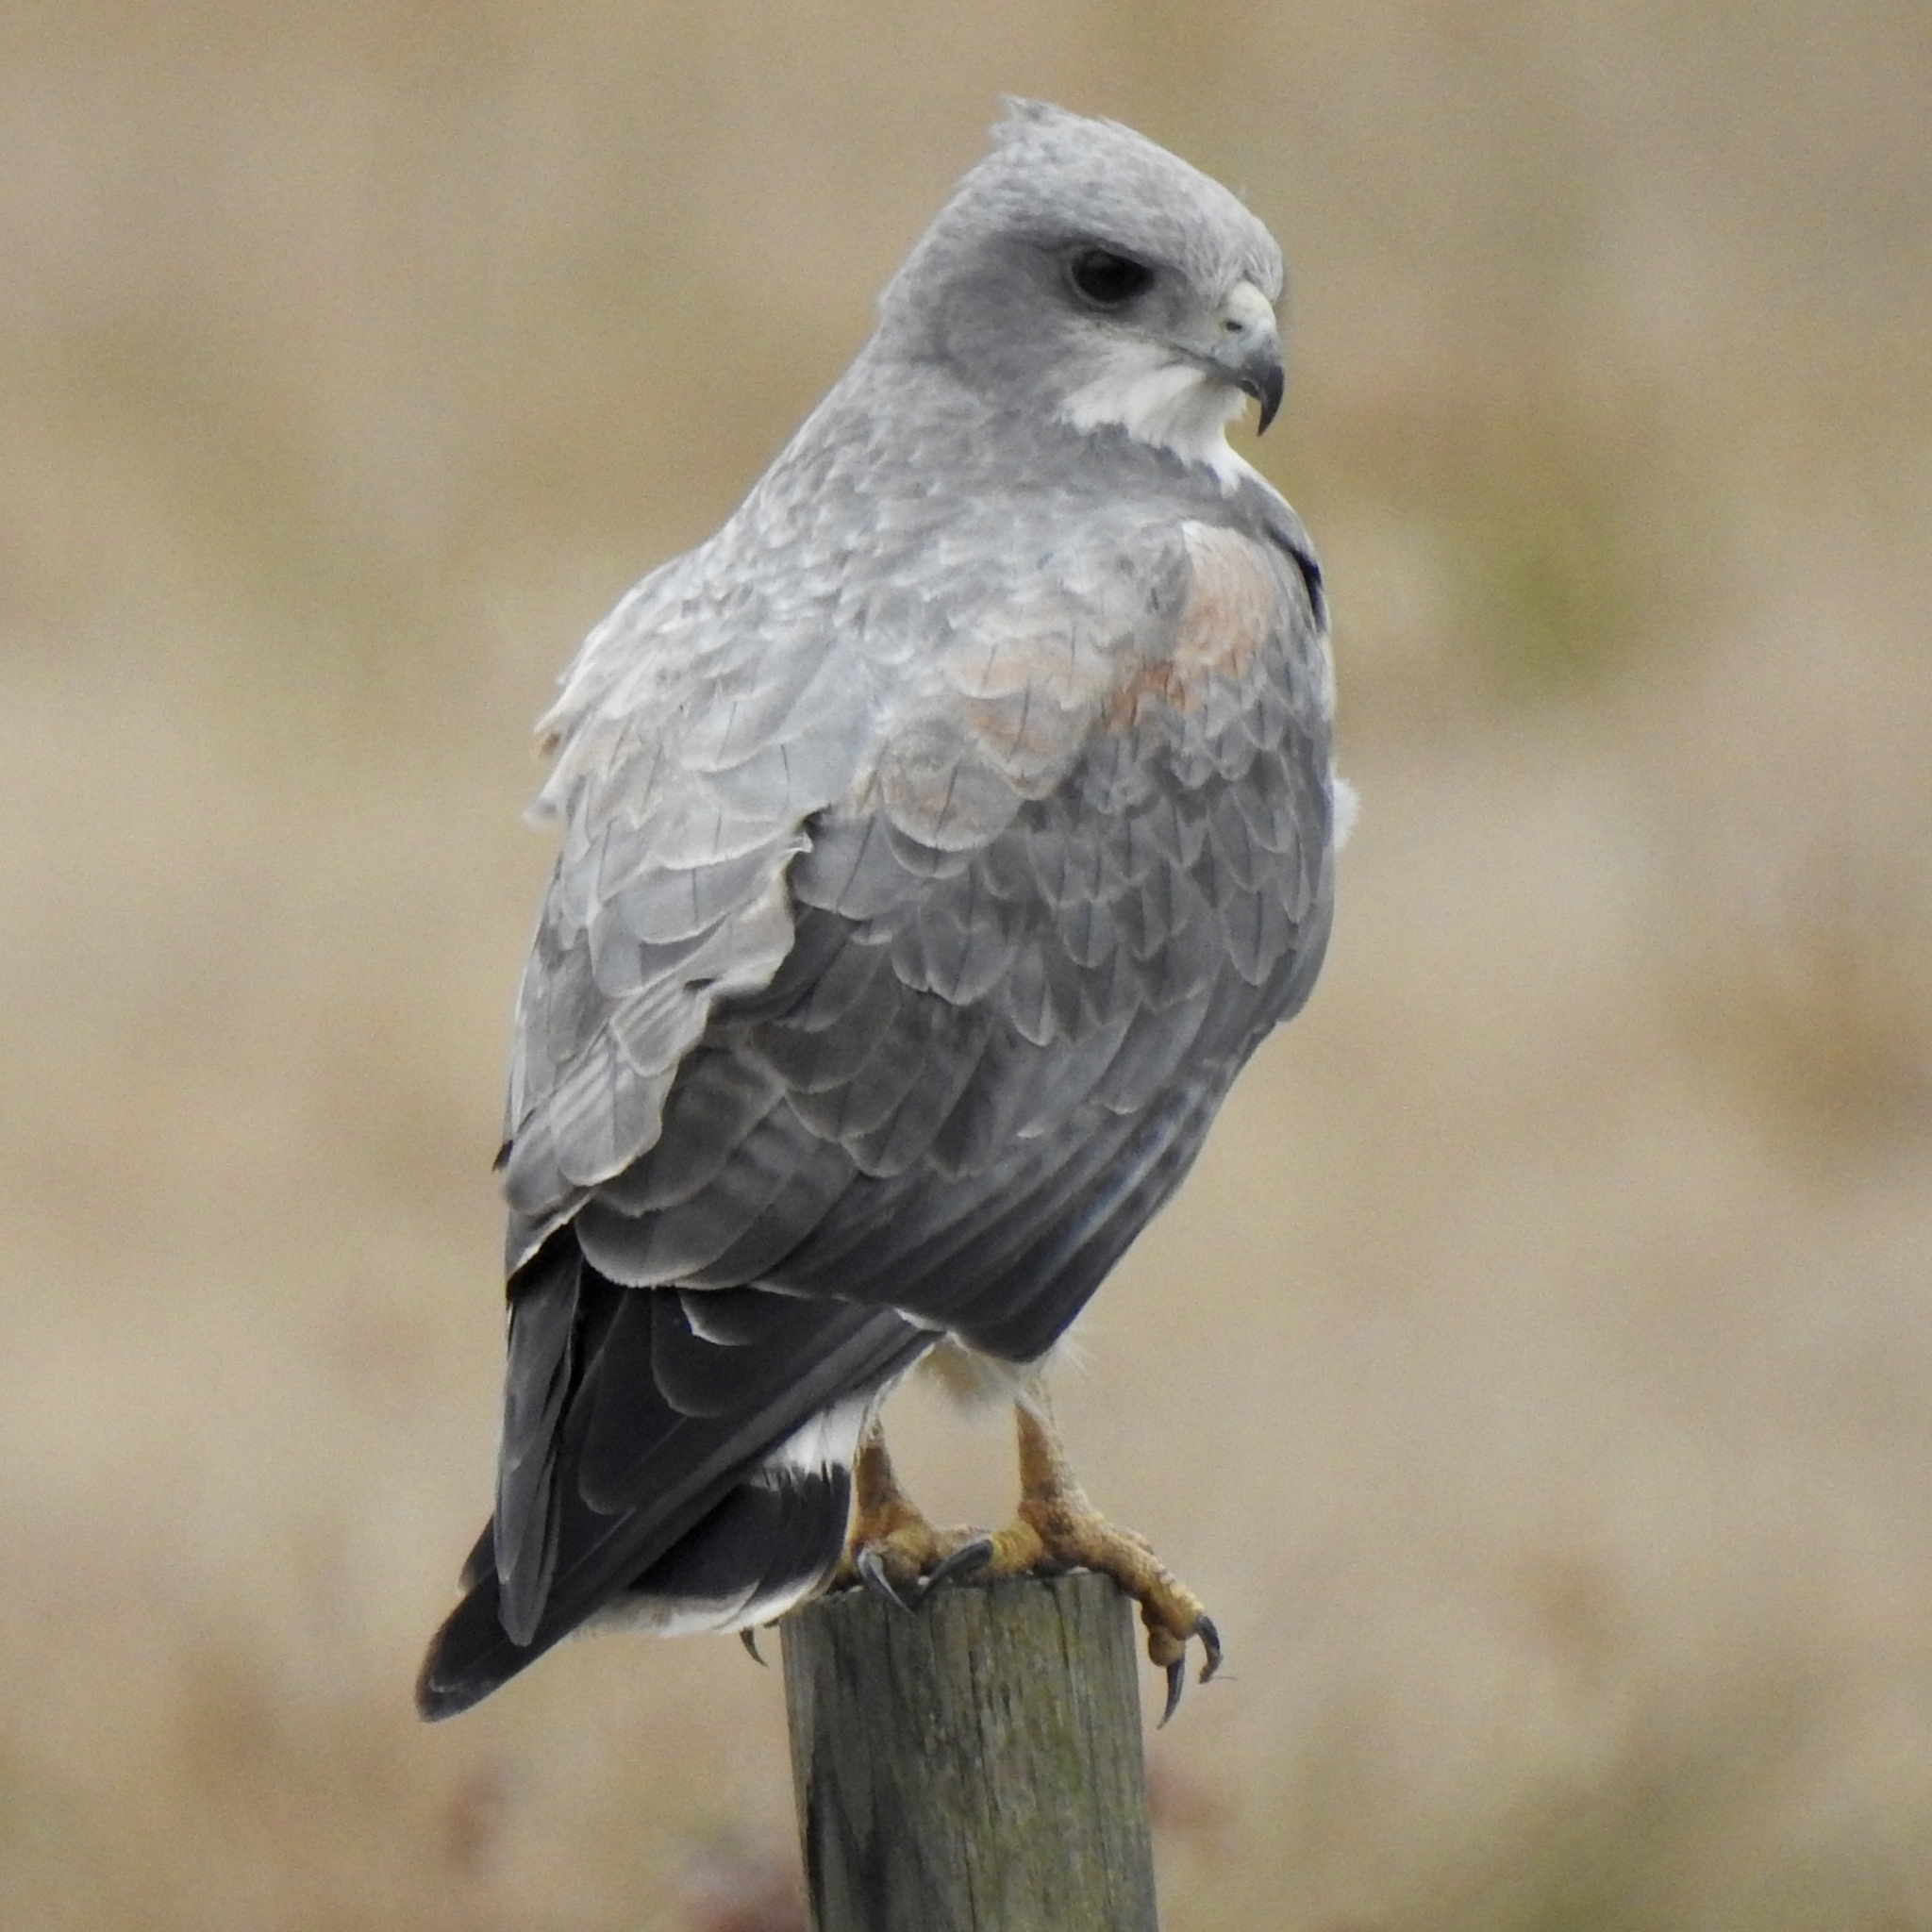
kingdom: Animalia
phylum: Chordata
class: Aves
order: Accipitriformes
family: Accipitridae
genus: Buteo
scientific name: Buteo albicaudatus
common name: White-tailed hawk
